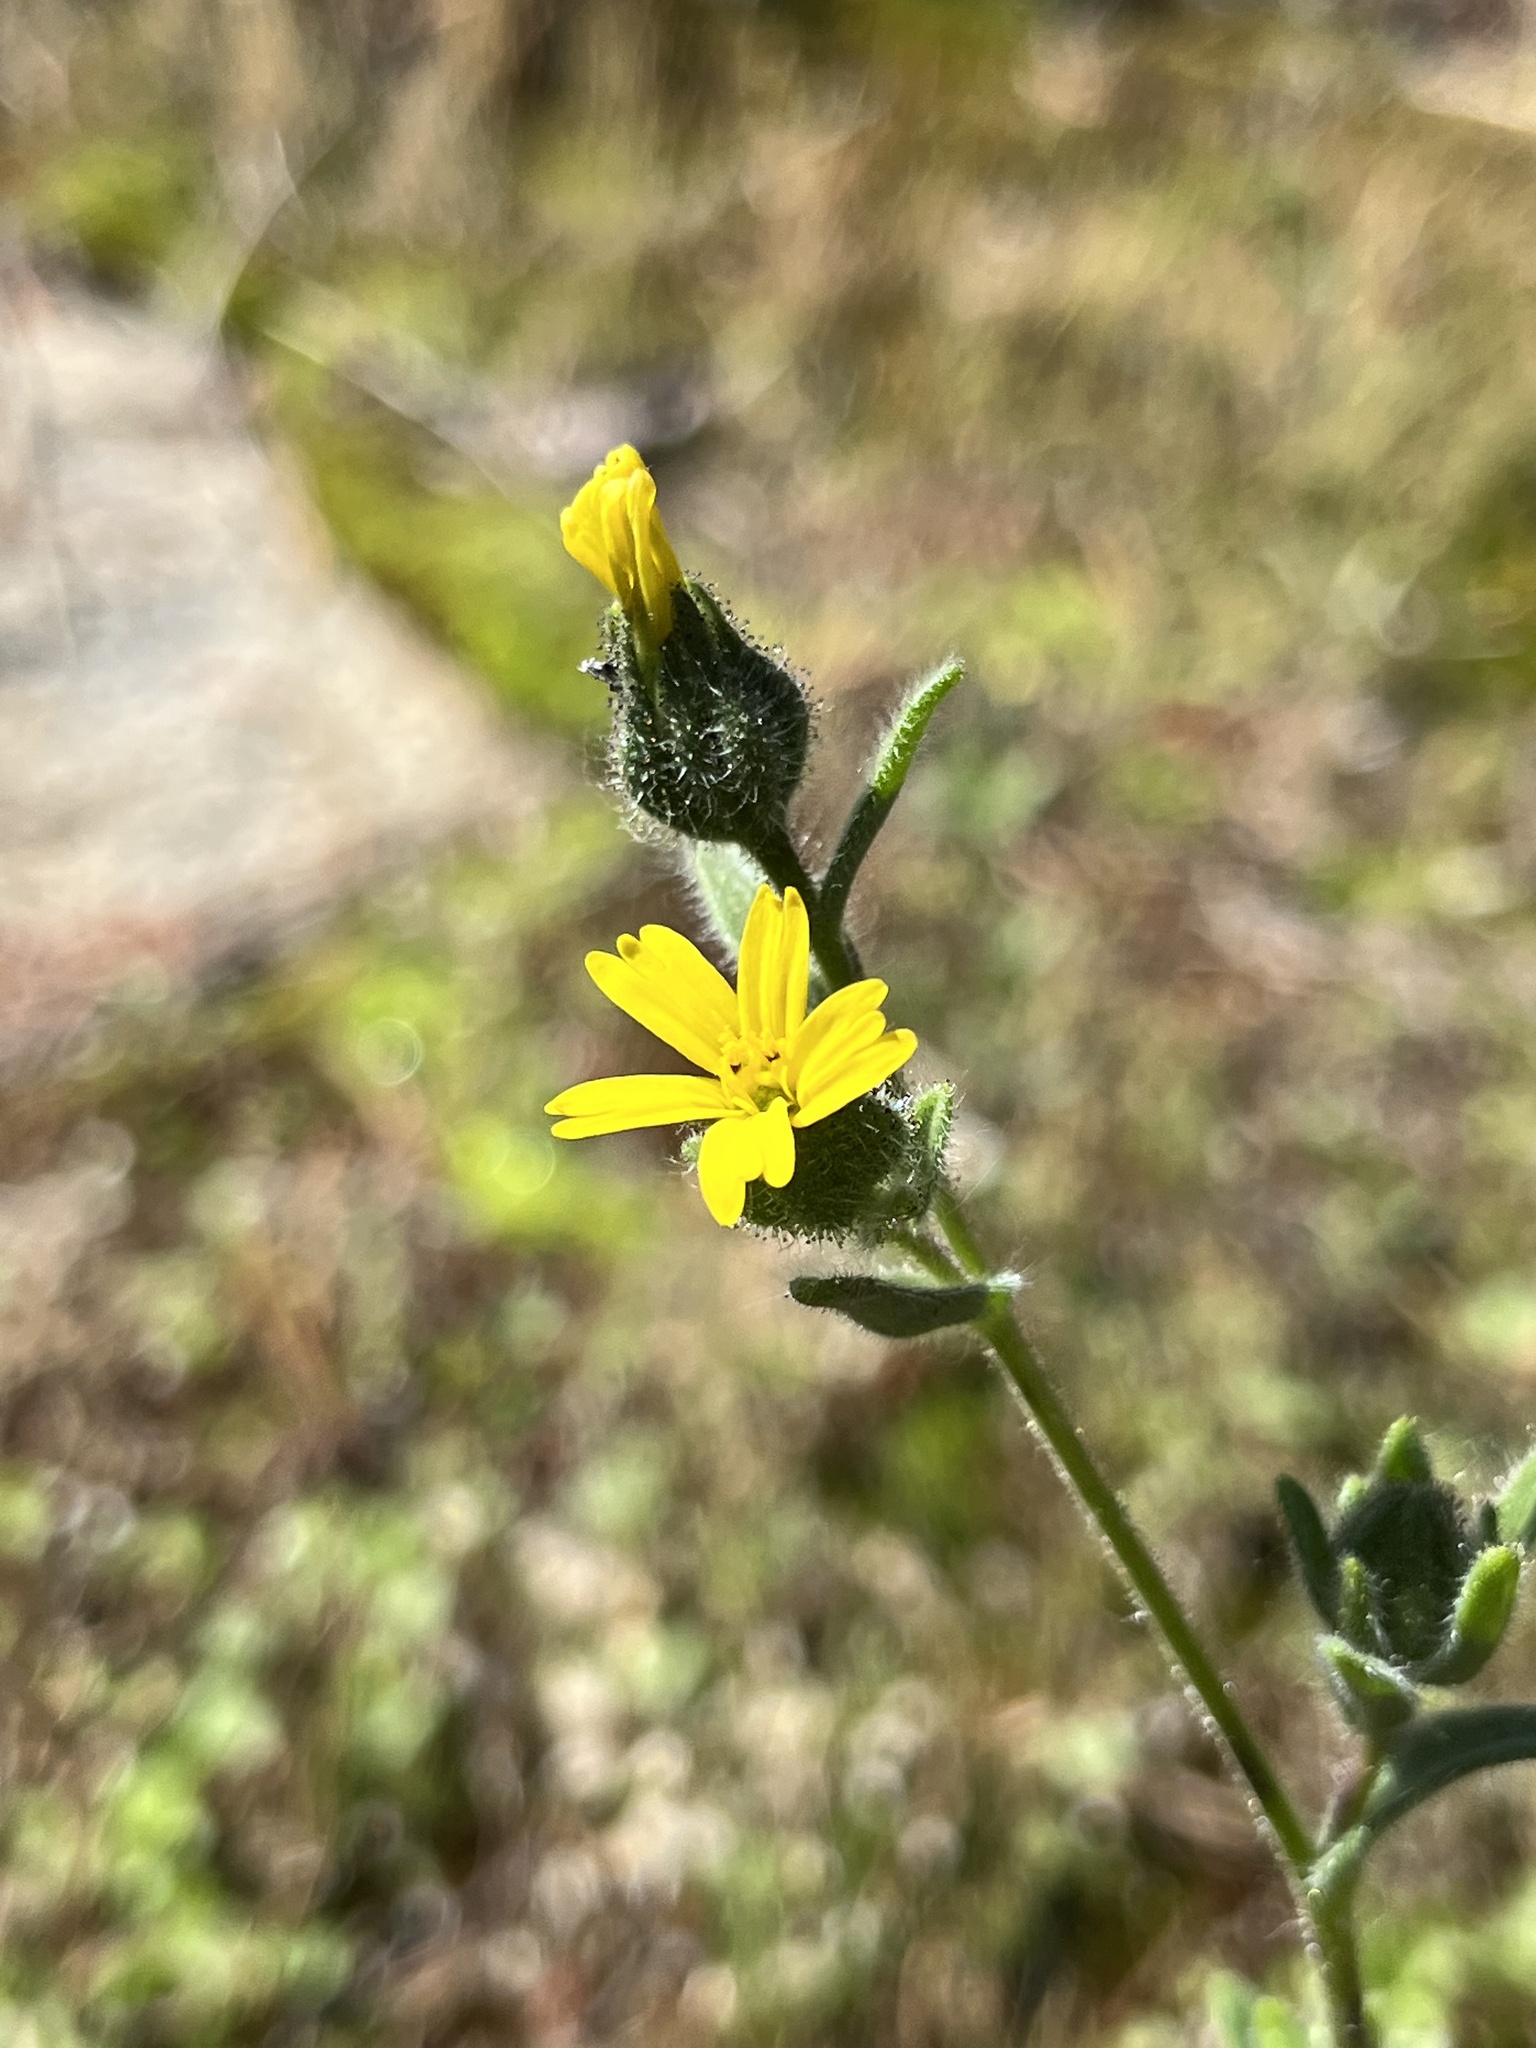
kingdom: Plantae
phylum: Tracheophyta
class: Magnoliopsida
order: Asterales
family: Asteraceae
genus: Madia
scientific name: Madia gracilis
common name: Grassy tarweed
